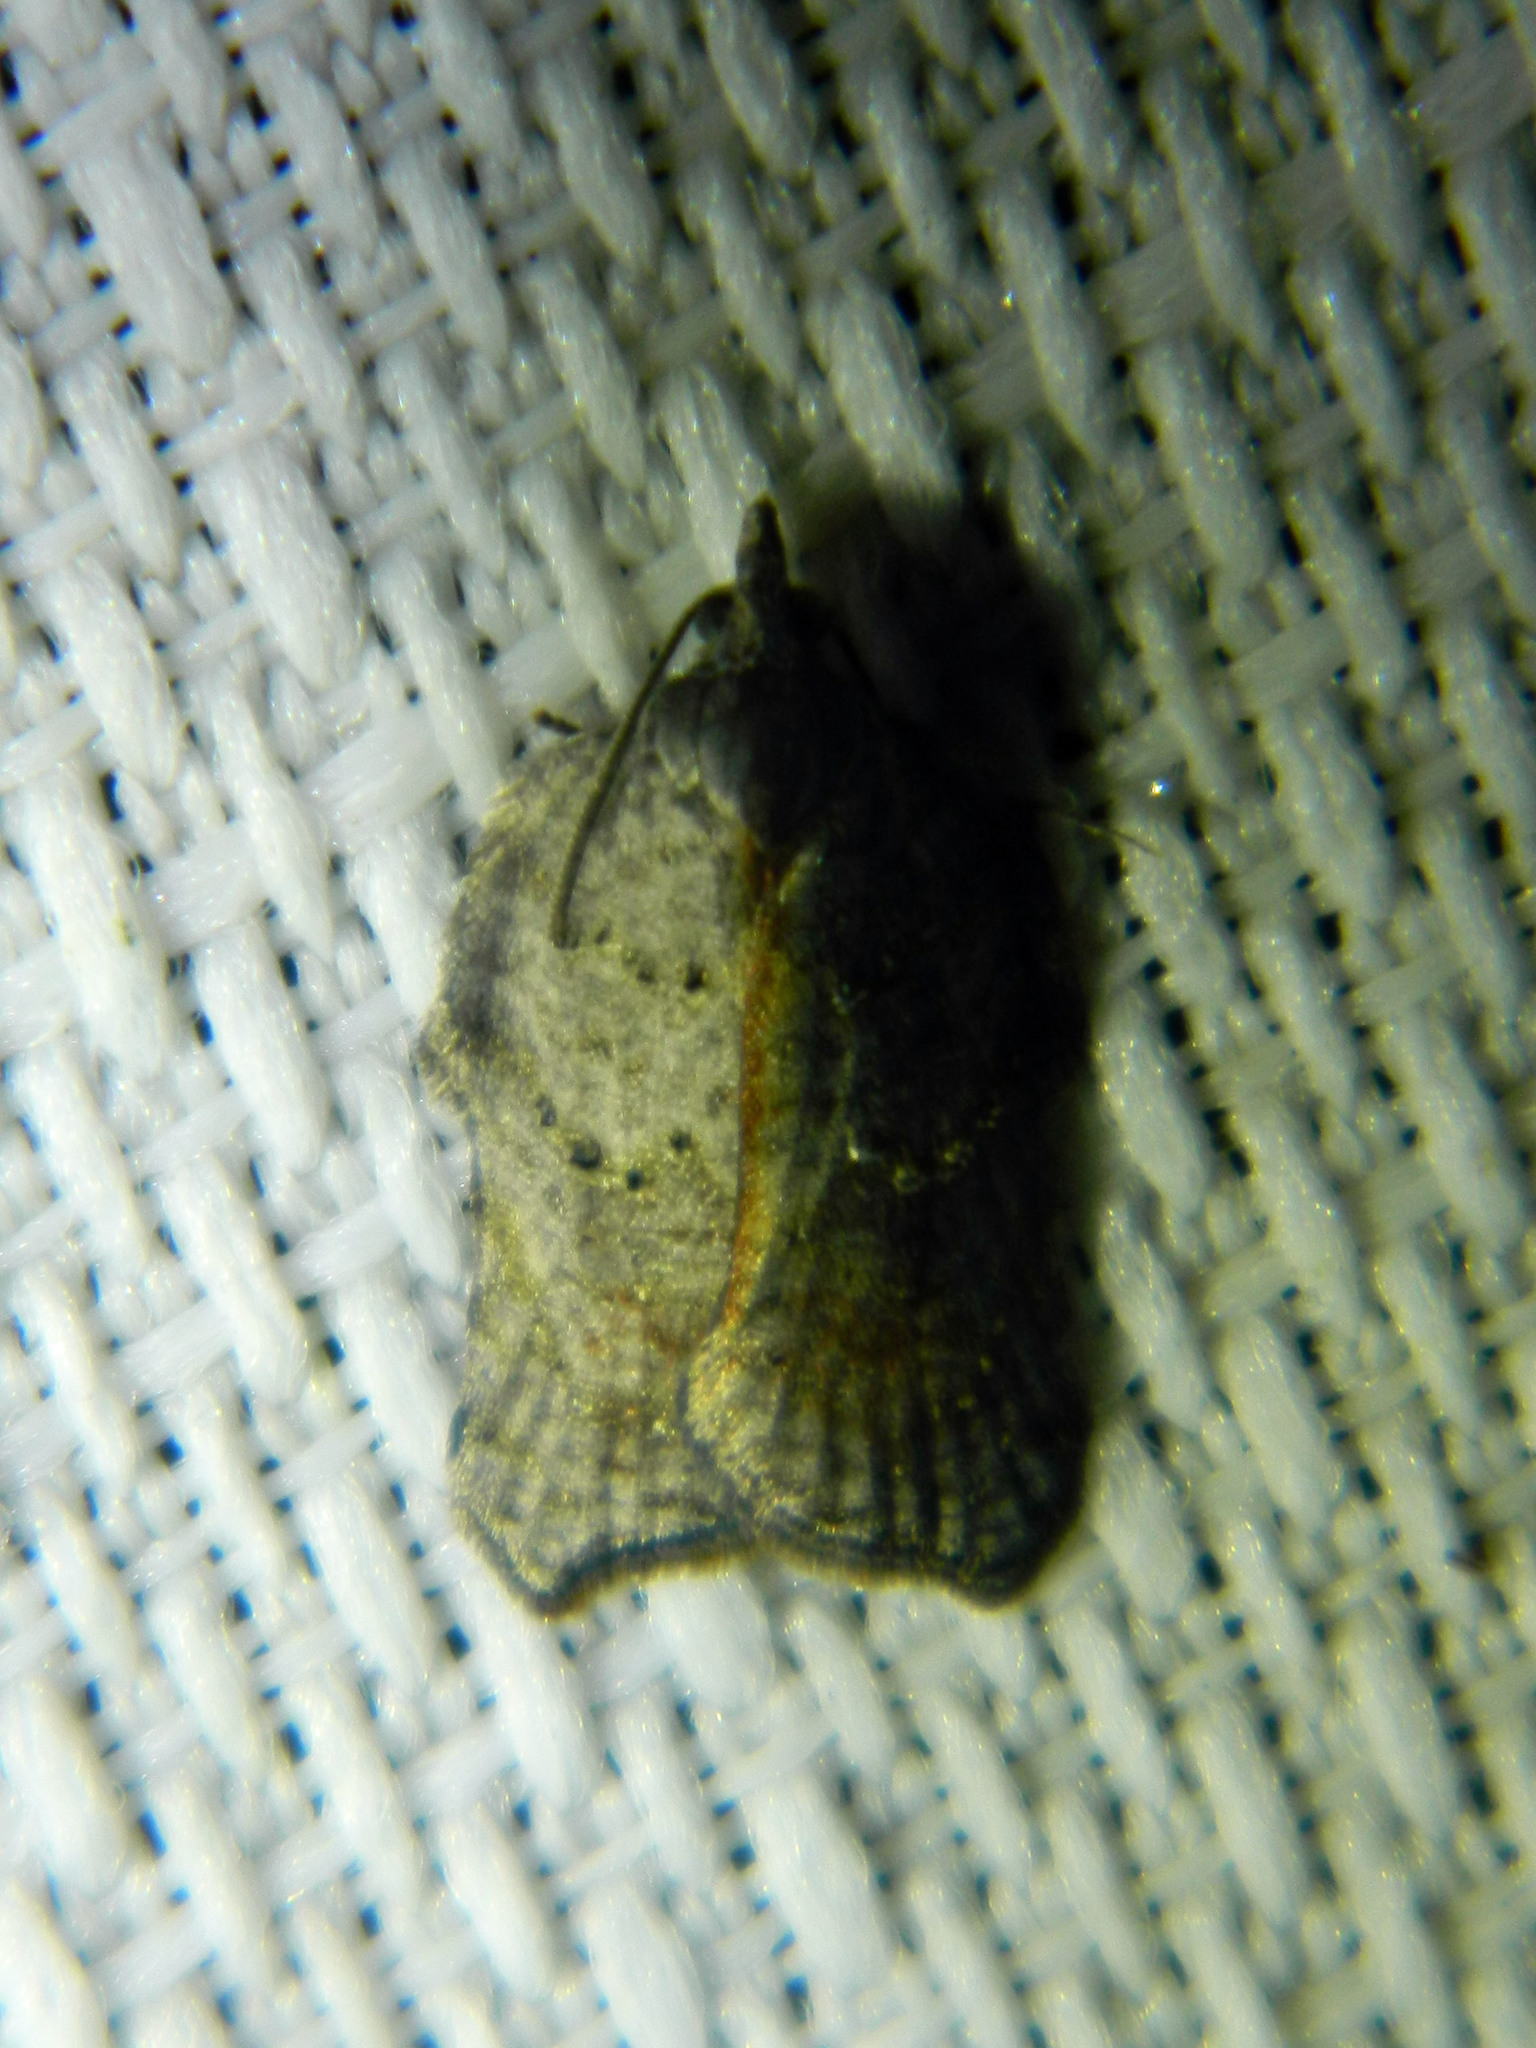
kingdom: Animalia
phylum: Arthropoda
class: Insecta
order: Lepidoptera
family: Tortricidae
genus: Acleris
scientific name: Acleris effractana
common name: Hook-winged tortrix moth
